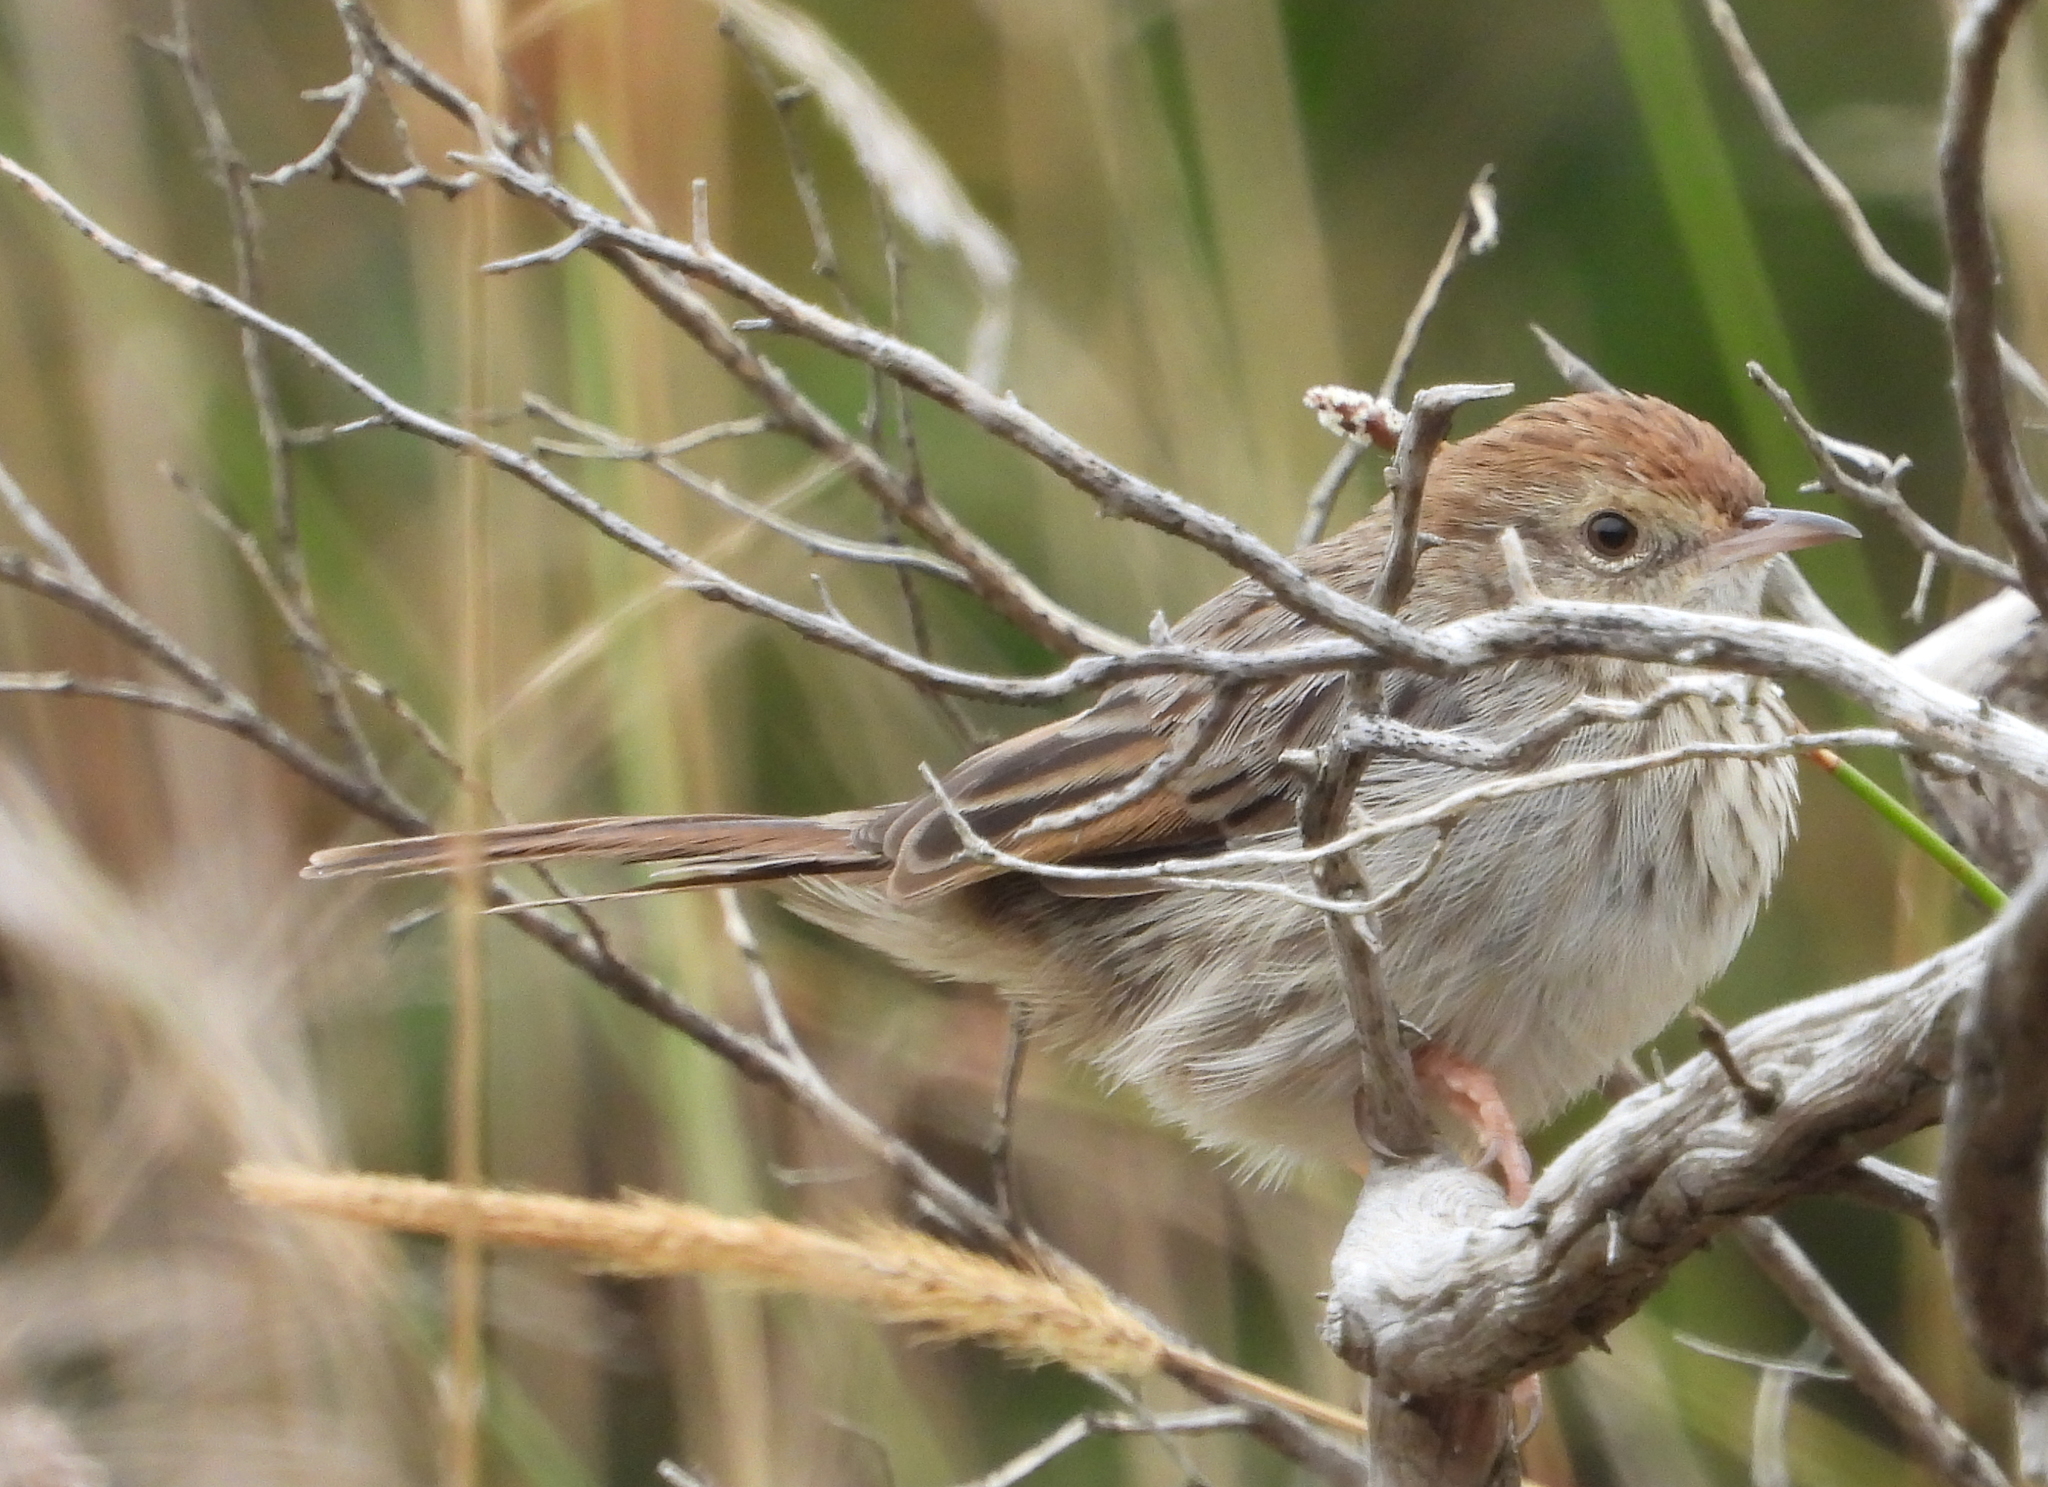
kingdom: Animalia
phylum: Chordata
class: Aves
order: Passeriformes
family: Cisticolidae
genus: Cisticola
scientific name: Cisticola subruficapilla
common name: Grey-backed cisticola
